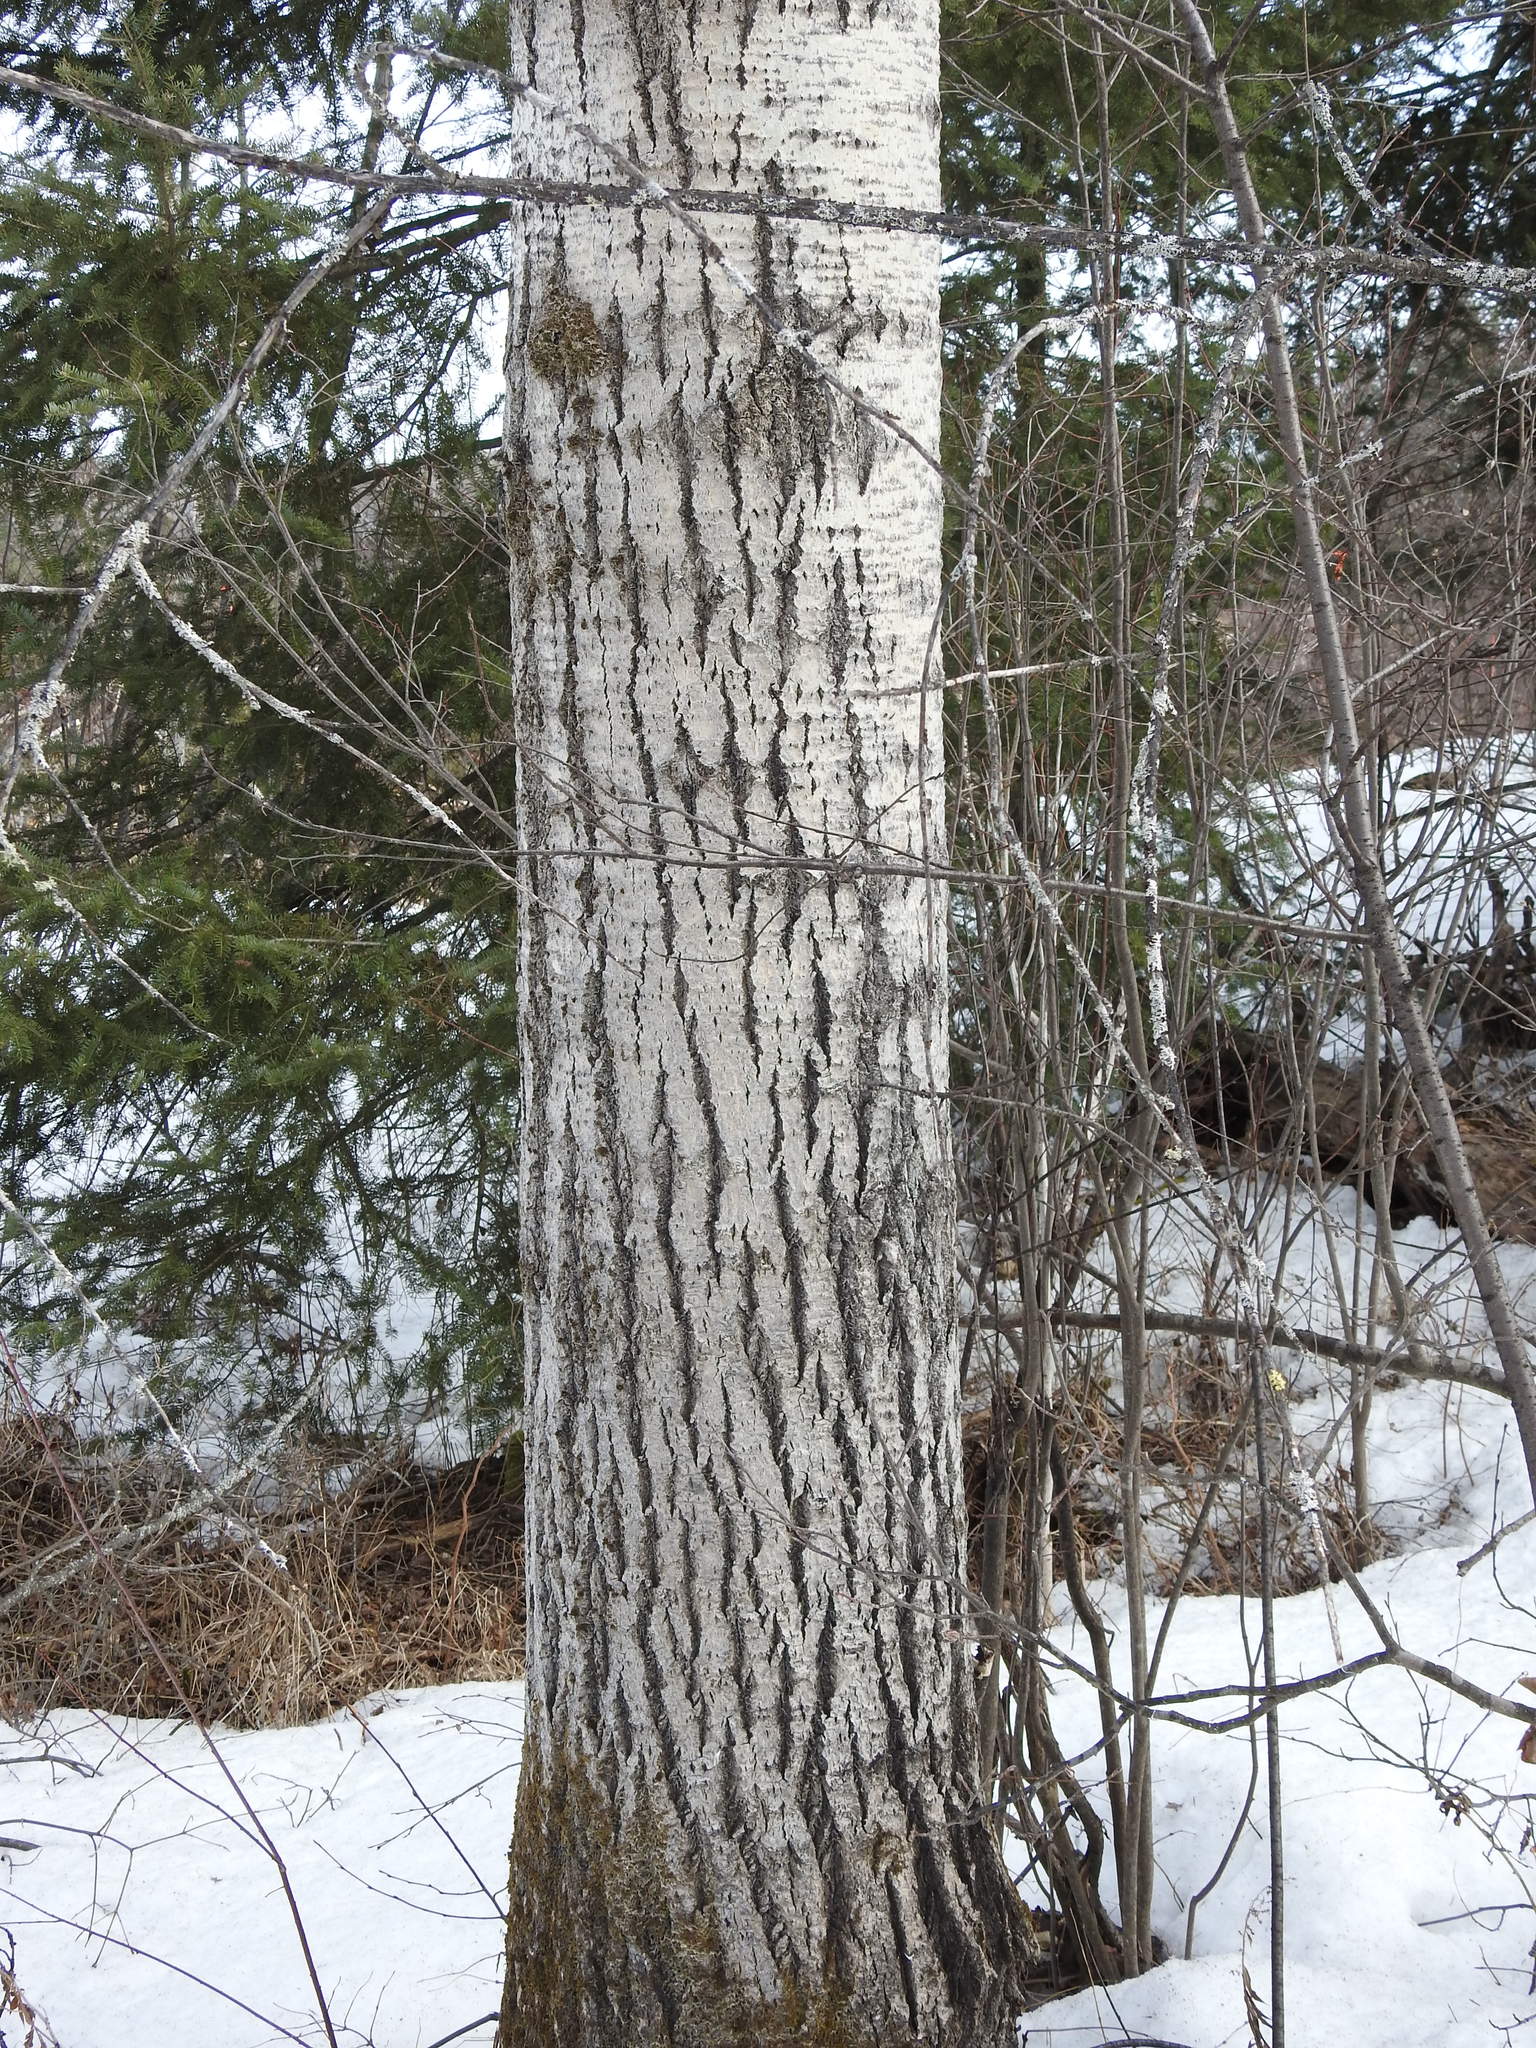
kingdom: Plantae
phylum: Tracheophyta
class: Magnoliopsida
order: Malpighiales
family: Salicaceae
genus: Populus
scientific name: Populus tremuloides
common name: Quaking aspen
